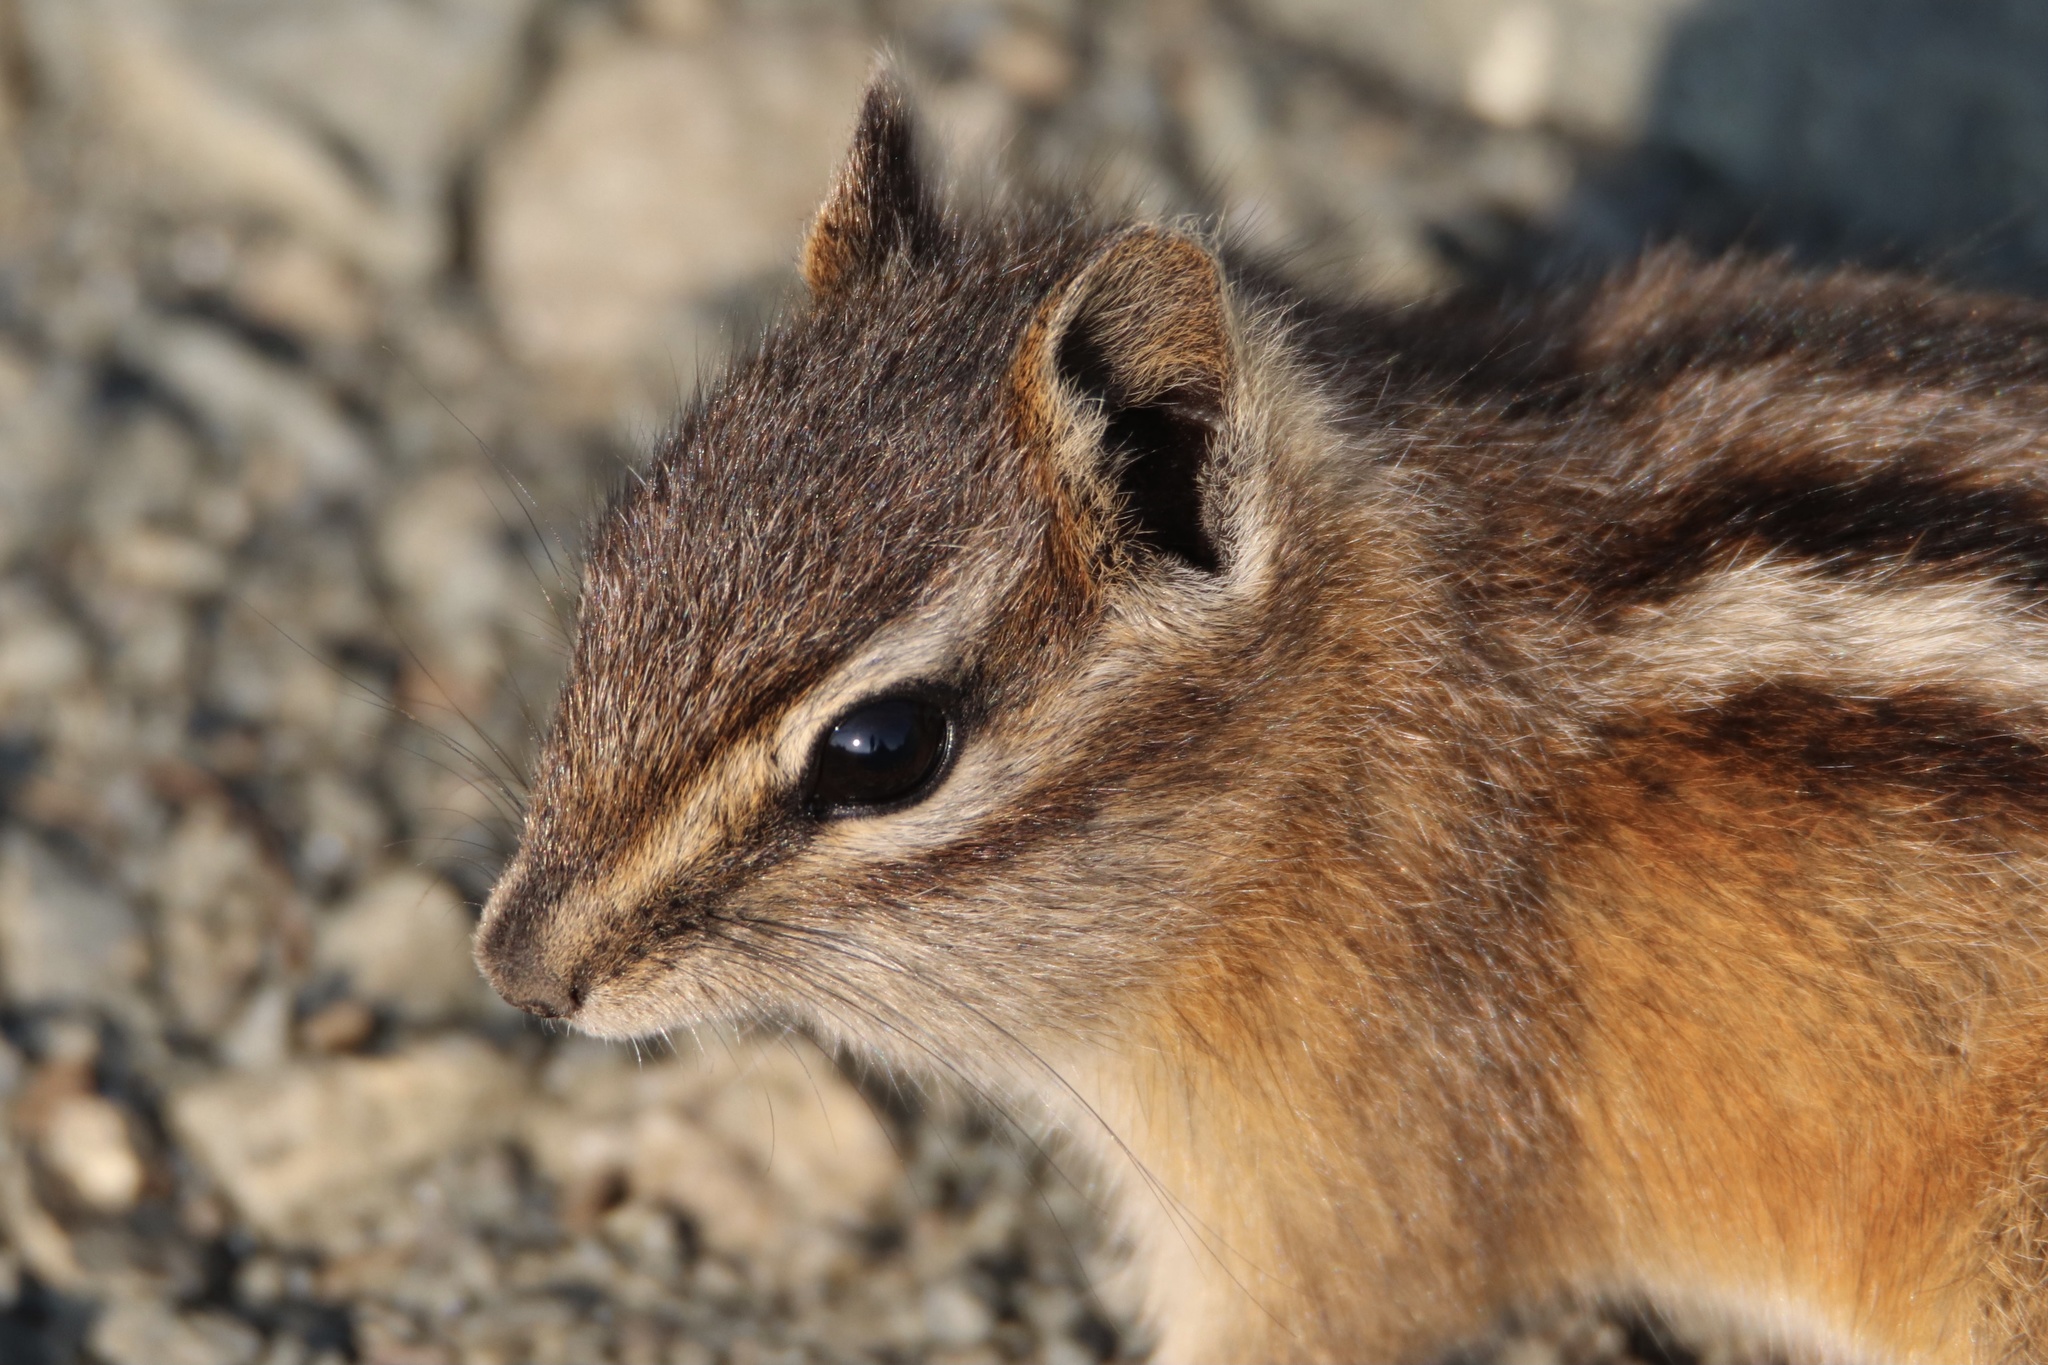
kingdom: Animalia
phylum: Chordata
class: Mammalia
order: Rodentia
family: Sciuridae
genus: Tamias
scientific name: Tamias amoenus
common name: Yellow-pine chipmunk
